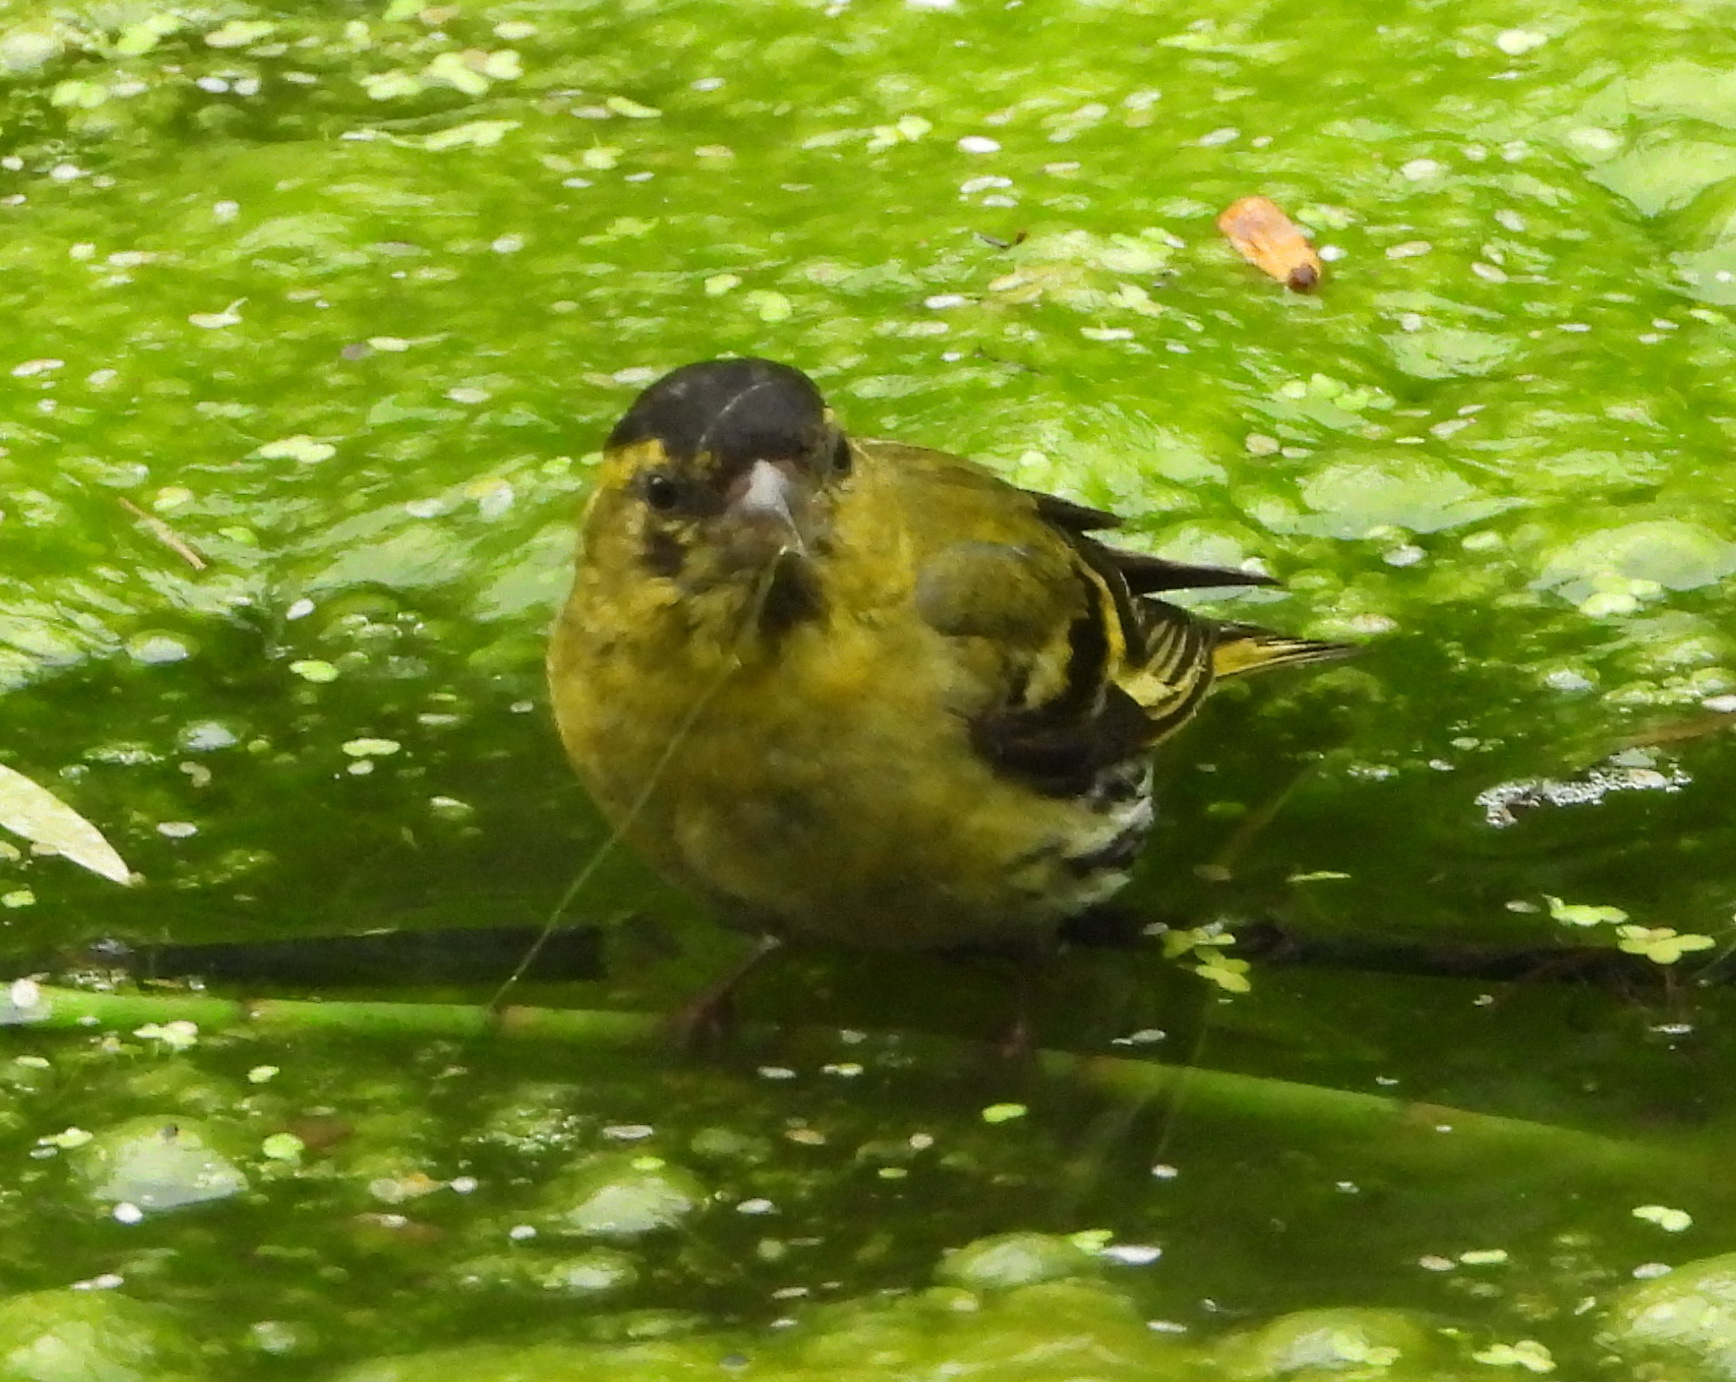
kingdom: Animalia
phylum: Chordata
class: Aves
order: Passeriformes
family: Fringillidae
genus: Spinus
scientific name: Spinus spinus
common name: Eurasian siskin
